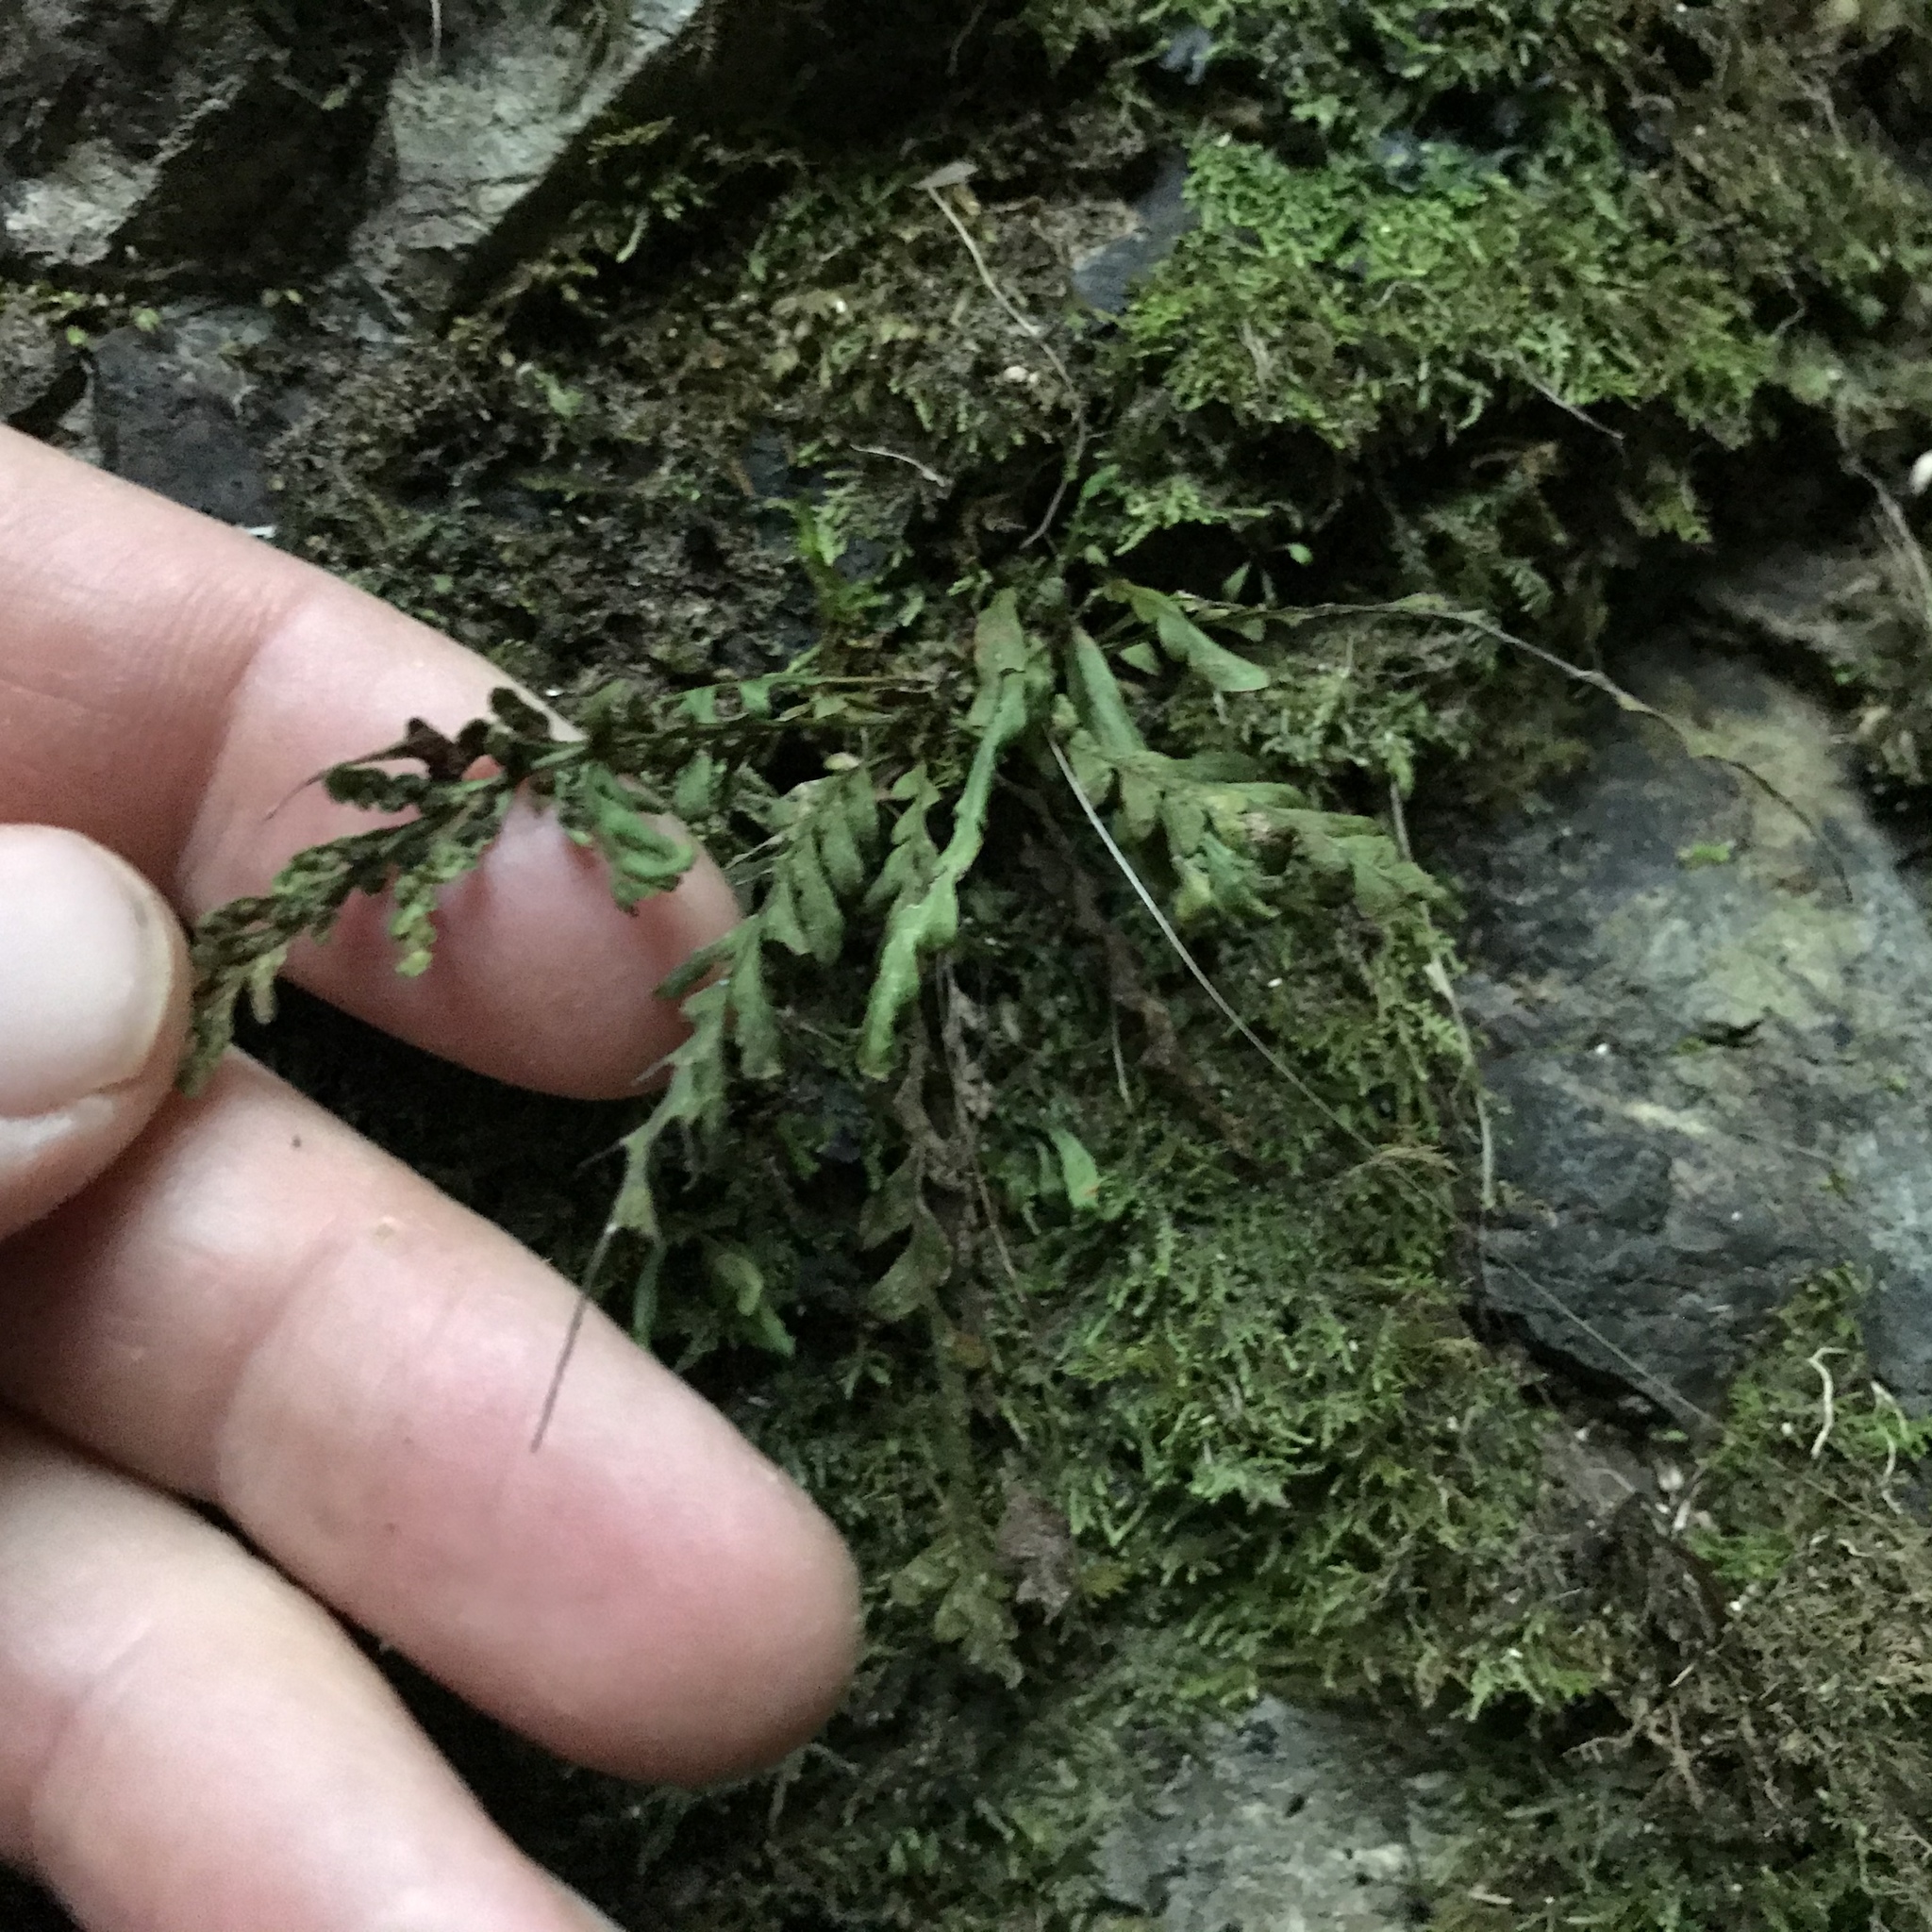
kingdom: Plantae
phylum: Tracheophyta
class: Polypodiopsida
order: Polypodiales
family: Polypodiaceae
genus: Notogrammitis
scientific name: Notogrammitis heterophylla
